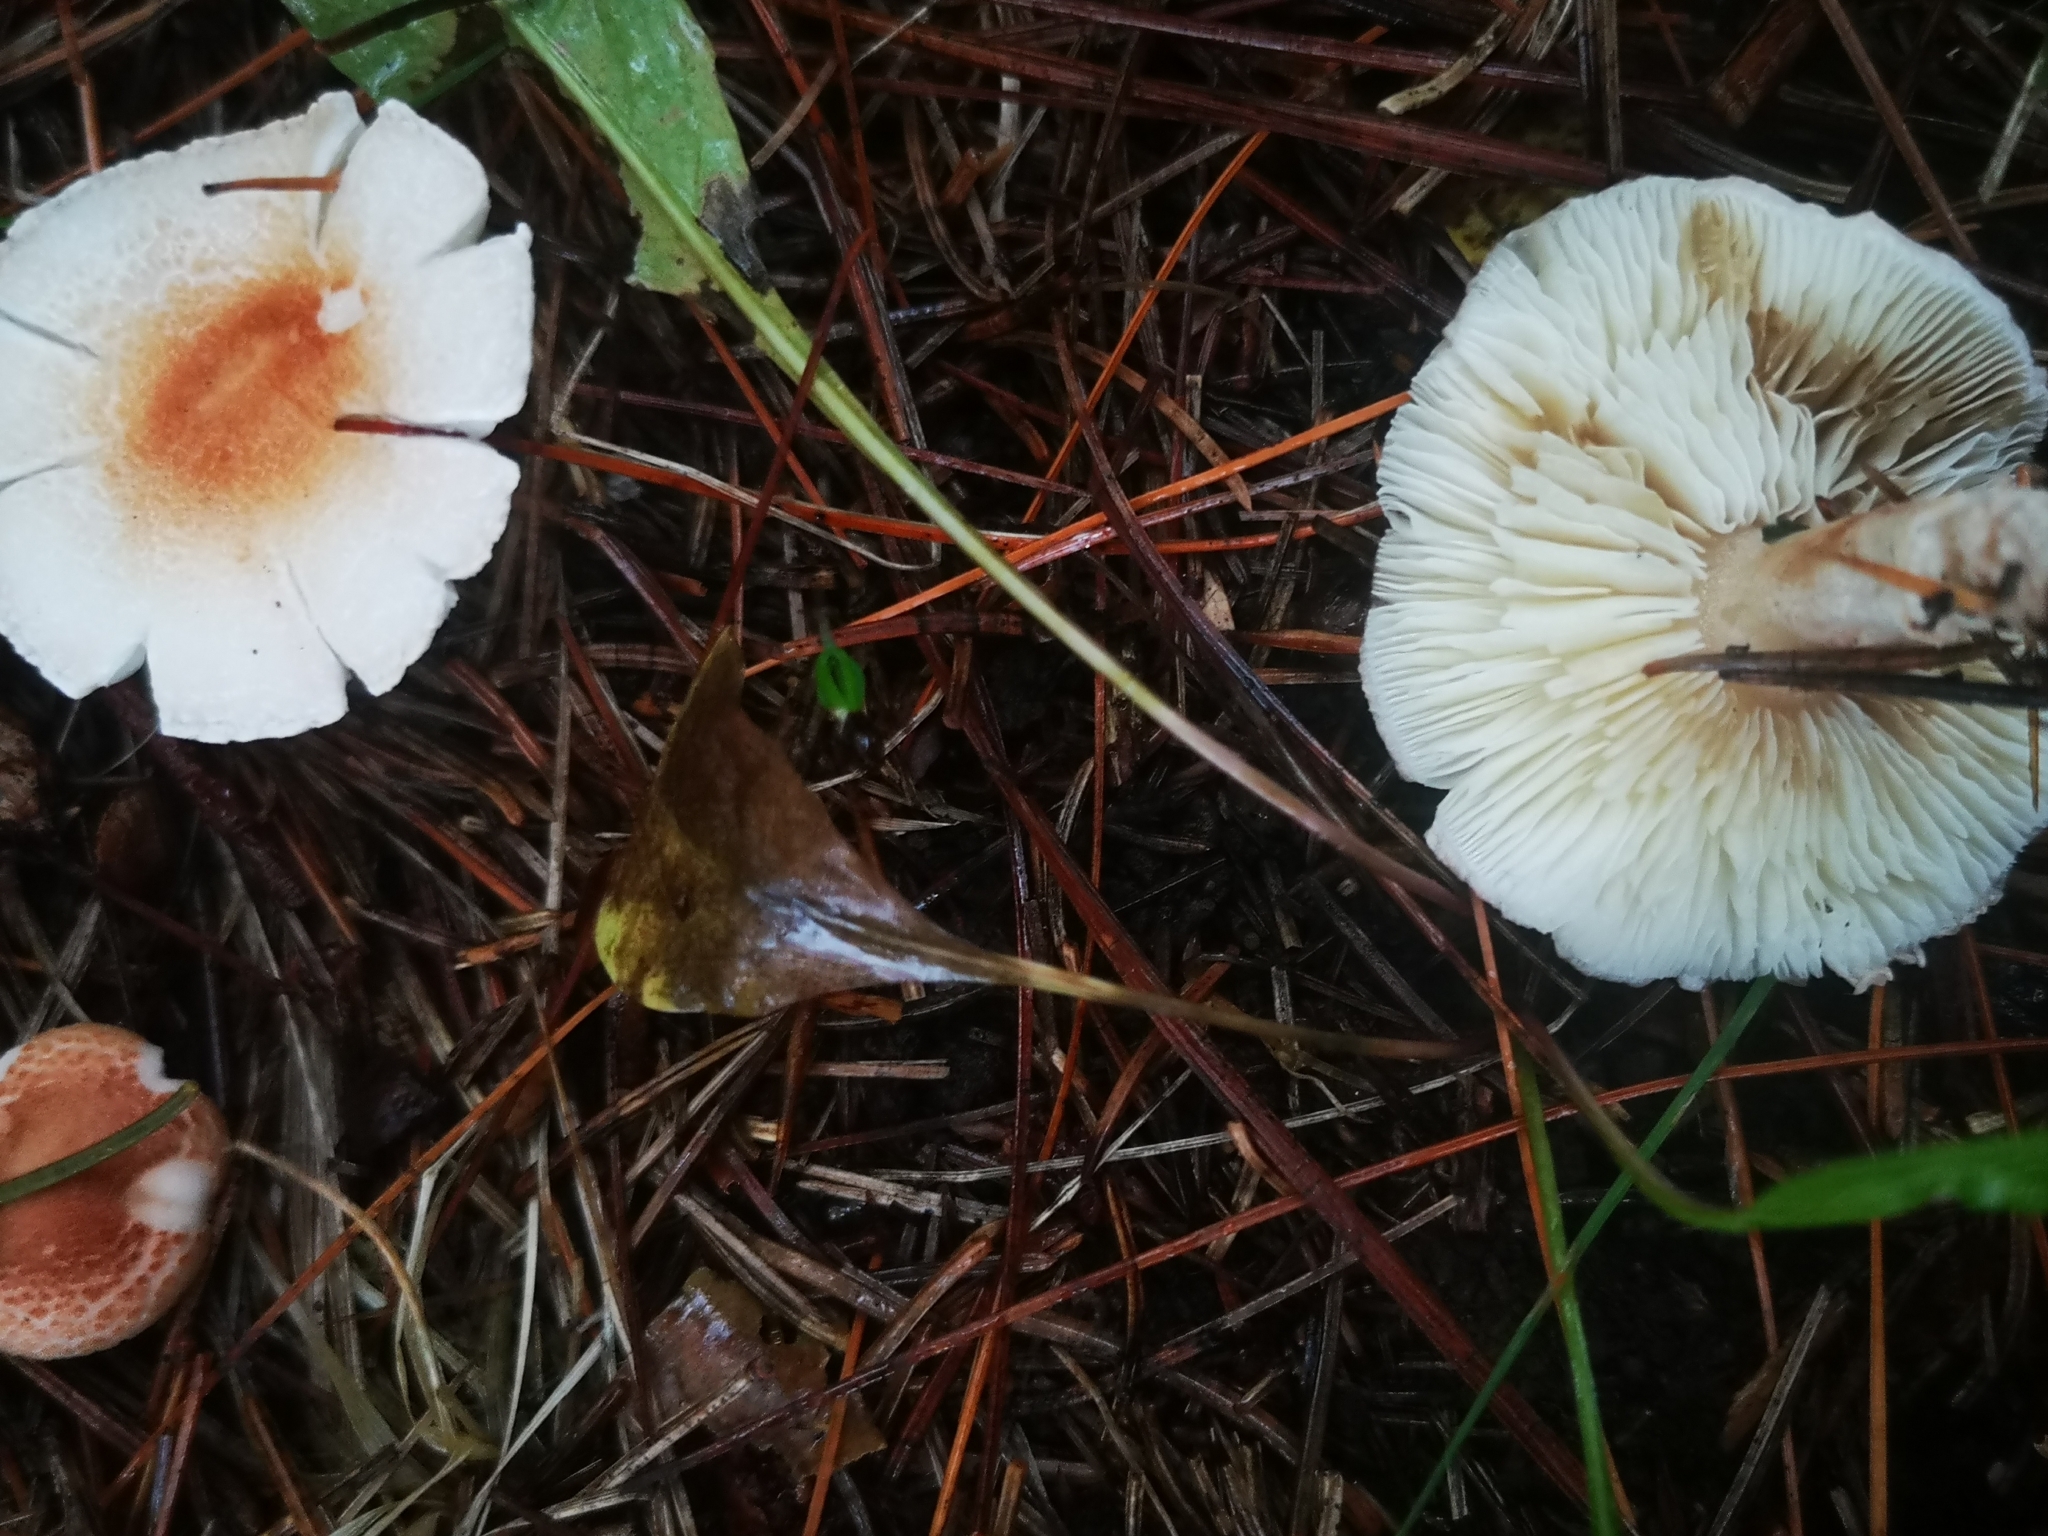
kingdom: Fungi
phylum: Basidiomycota
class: Agaricomycetes
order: Agaricales
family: Agaricaceae
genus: Lepiota
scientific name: Lepiota cristata
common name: Stinking dapperling
